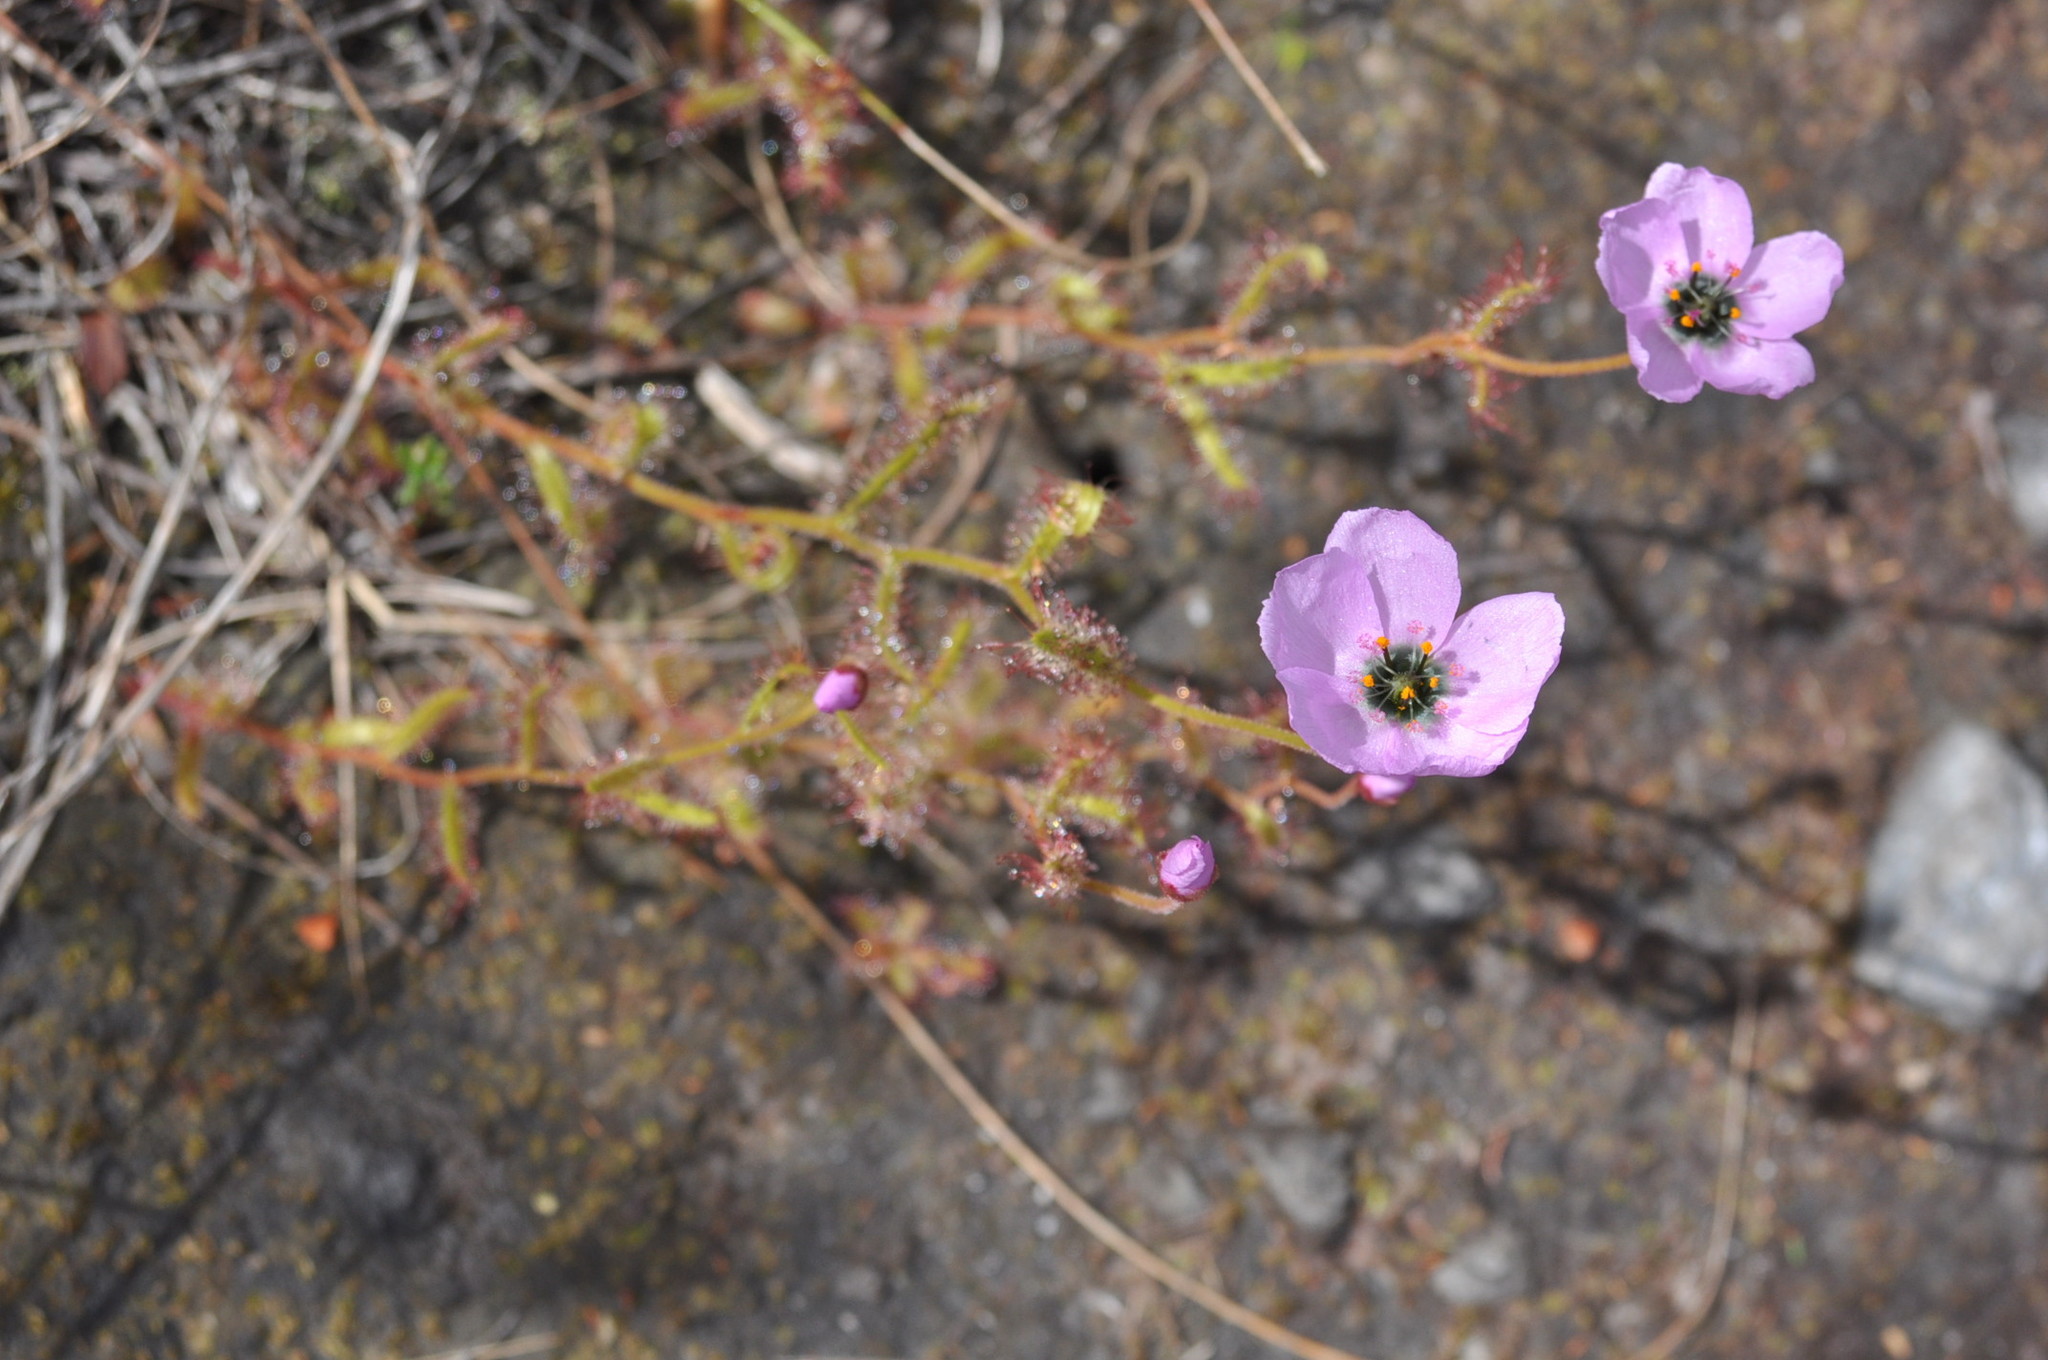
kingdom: Plantae
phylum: Tracheophyta
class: Magnoliopsida
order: Caryophyllales
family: Droseraceae
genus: Drosera
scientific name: Drosera cistiflora
